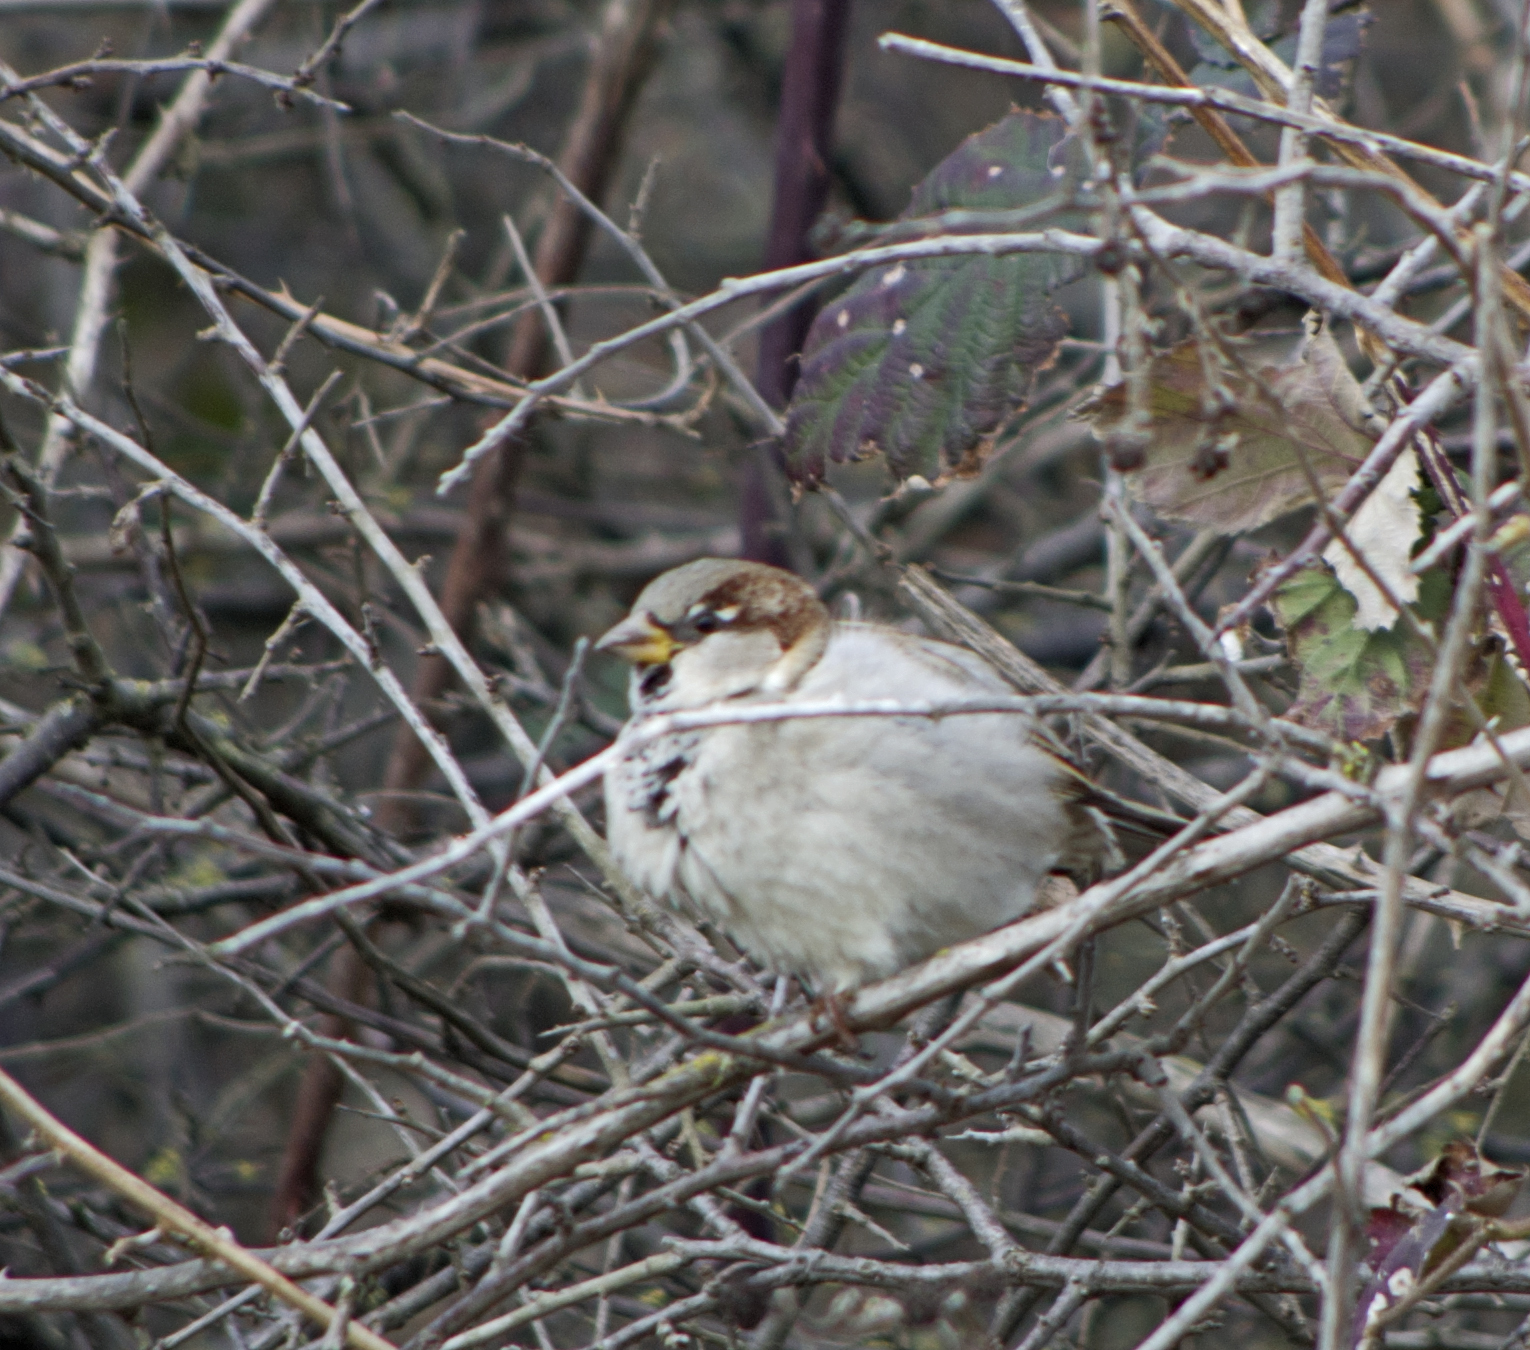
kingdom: Animalia
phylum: Chordata
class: Aves
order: Passeriformes
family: Passeridae
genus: Passer
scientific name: Passer domesticus
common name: House sparrow
